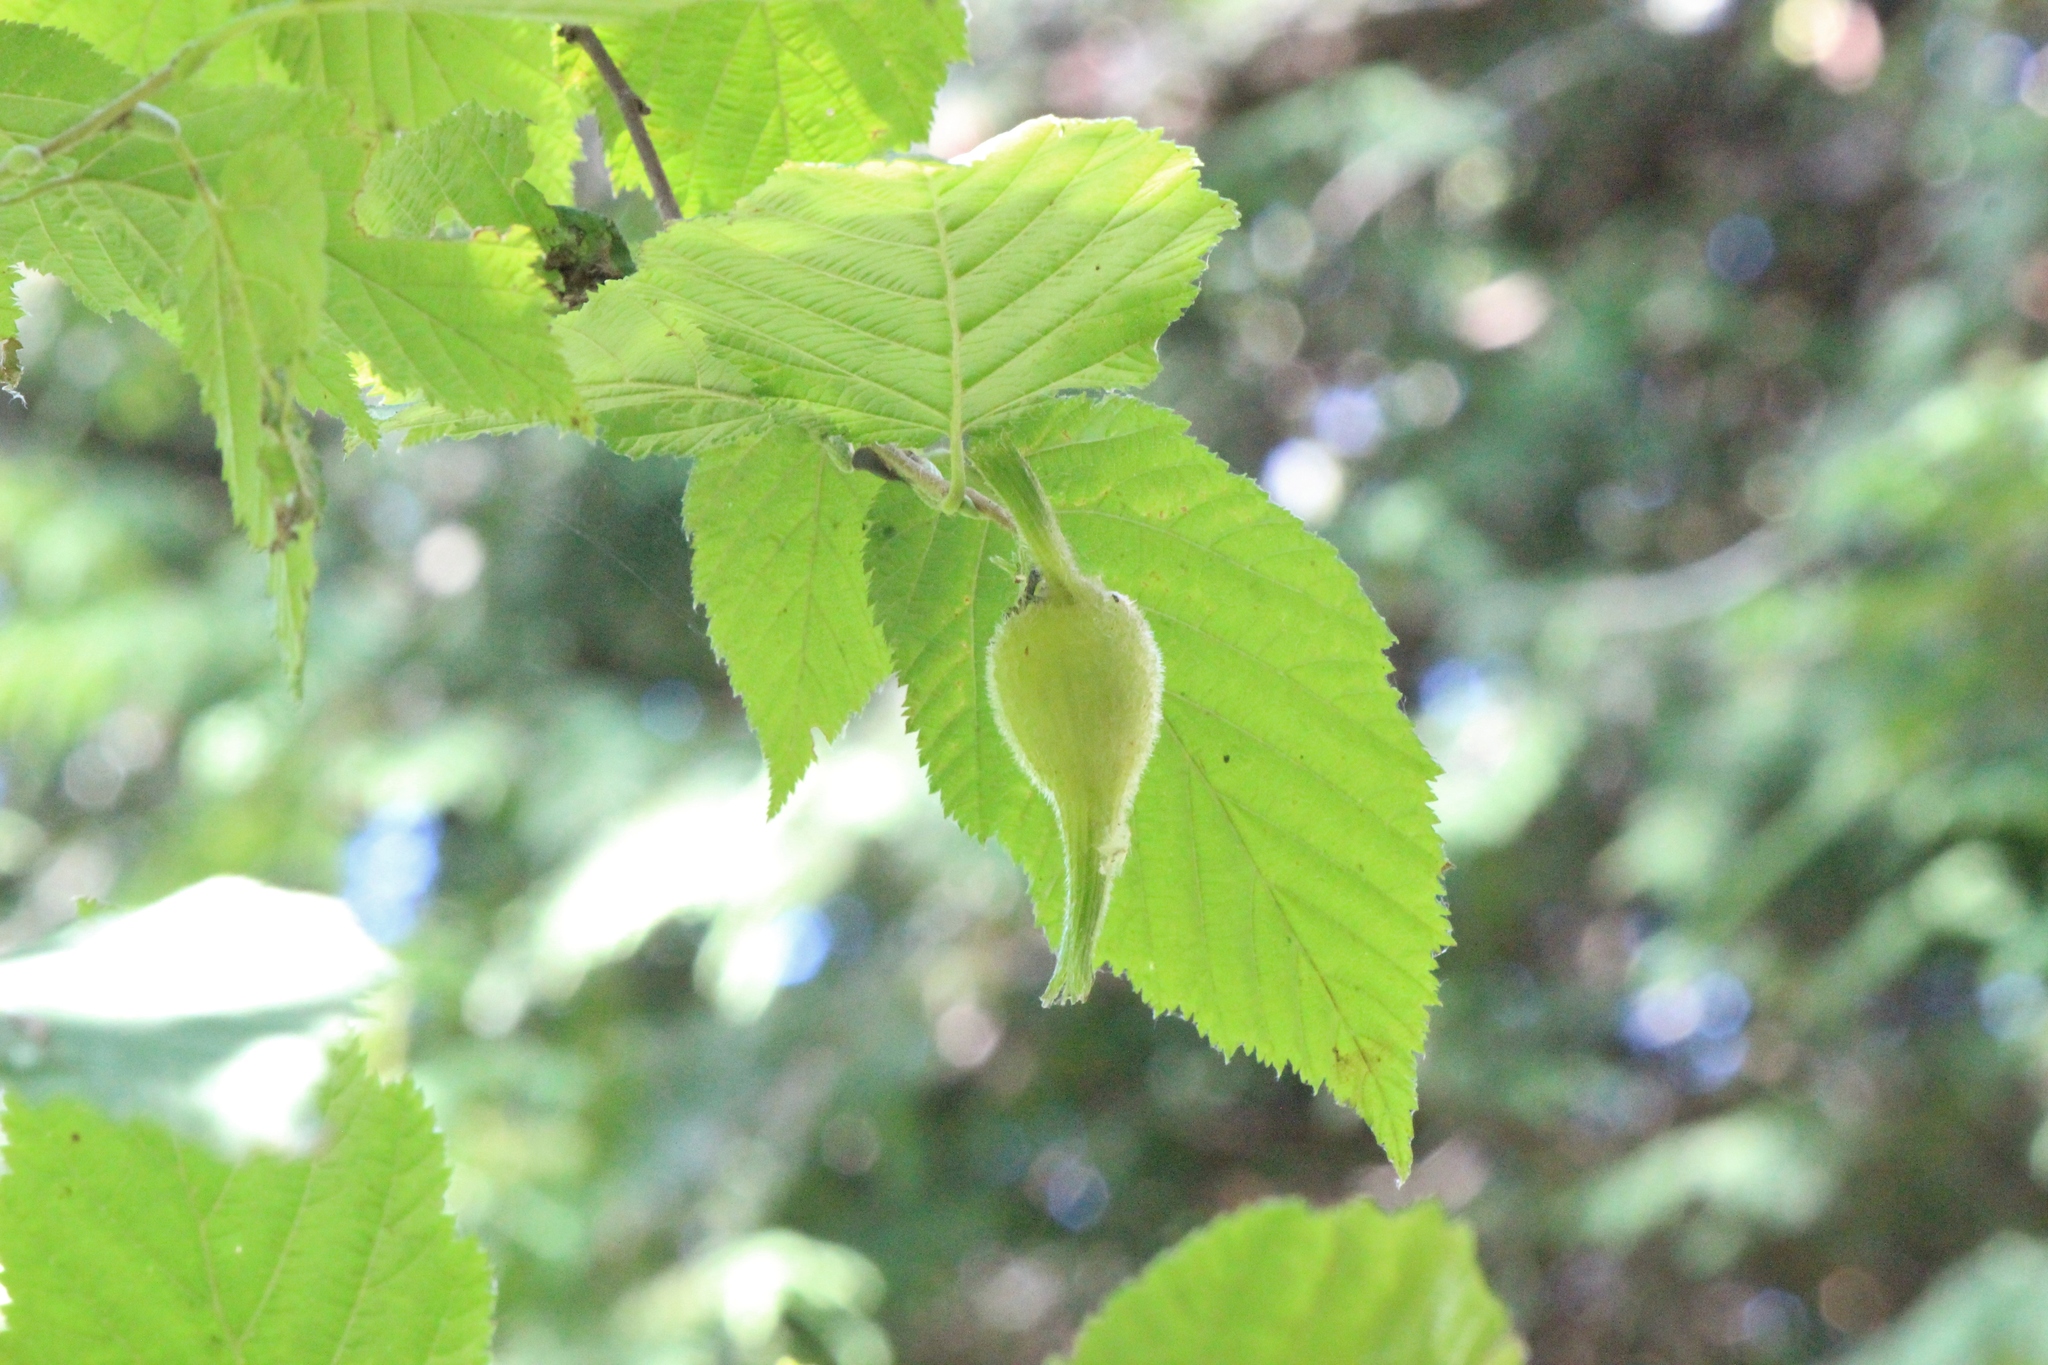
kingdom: Plantae
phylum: Tracheophyta
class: Magnoliopsida
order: Fagales
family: Betulaceae
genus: Corylus
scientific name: Corylus cornuta
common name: Beaked hazel
